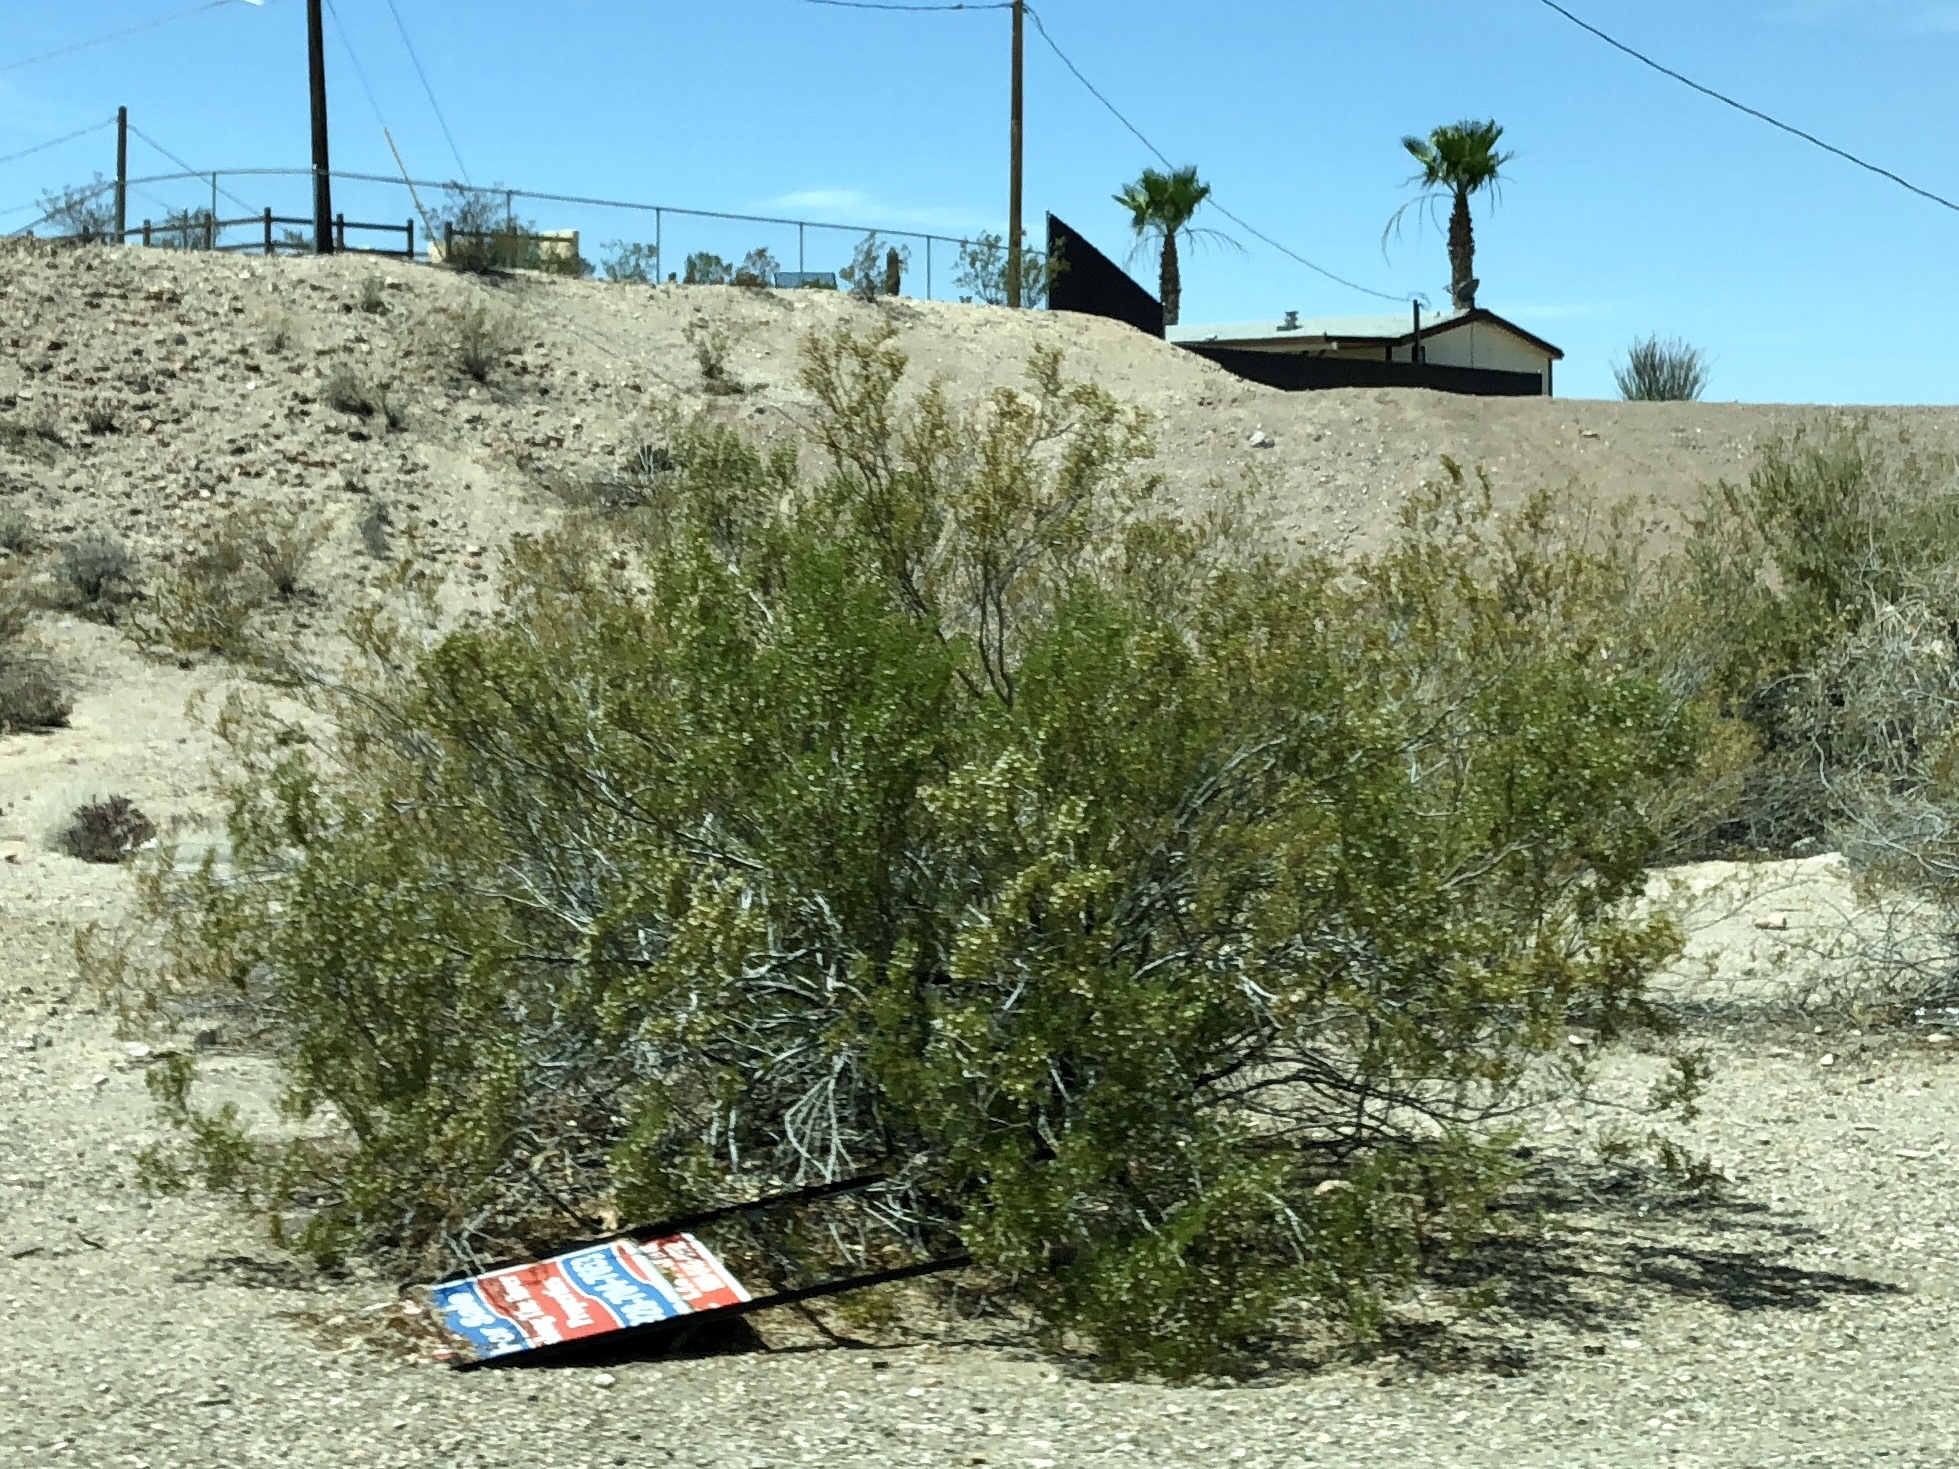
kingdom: Plantae
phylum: Tracheophyta
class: Magnoliopsida
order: Zygophyllales
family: Zygophyllaceae
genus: Larrea
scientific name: Larrea tridentata
